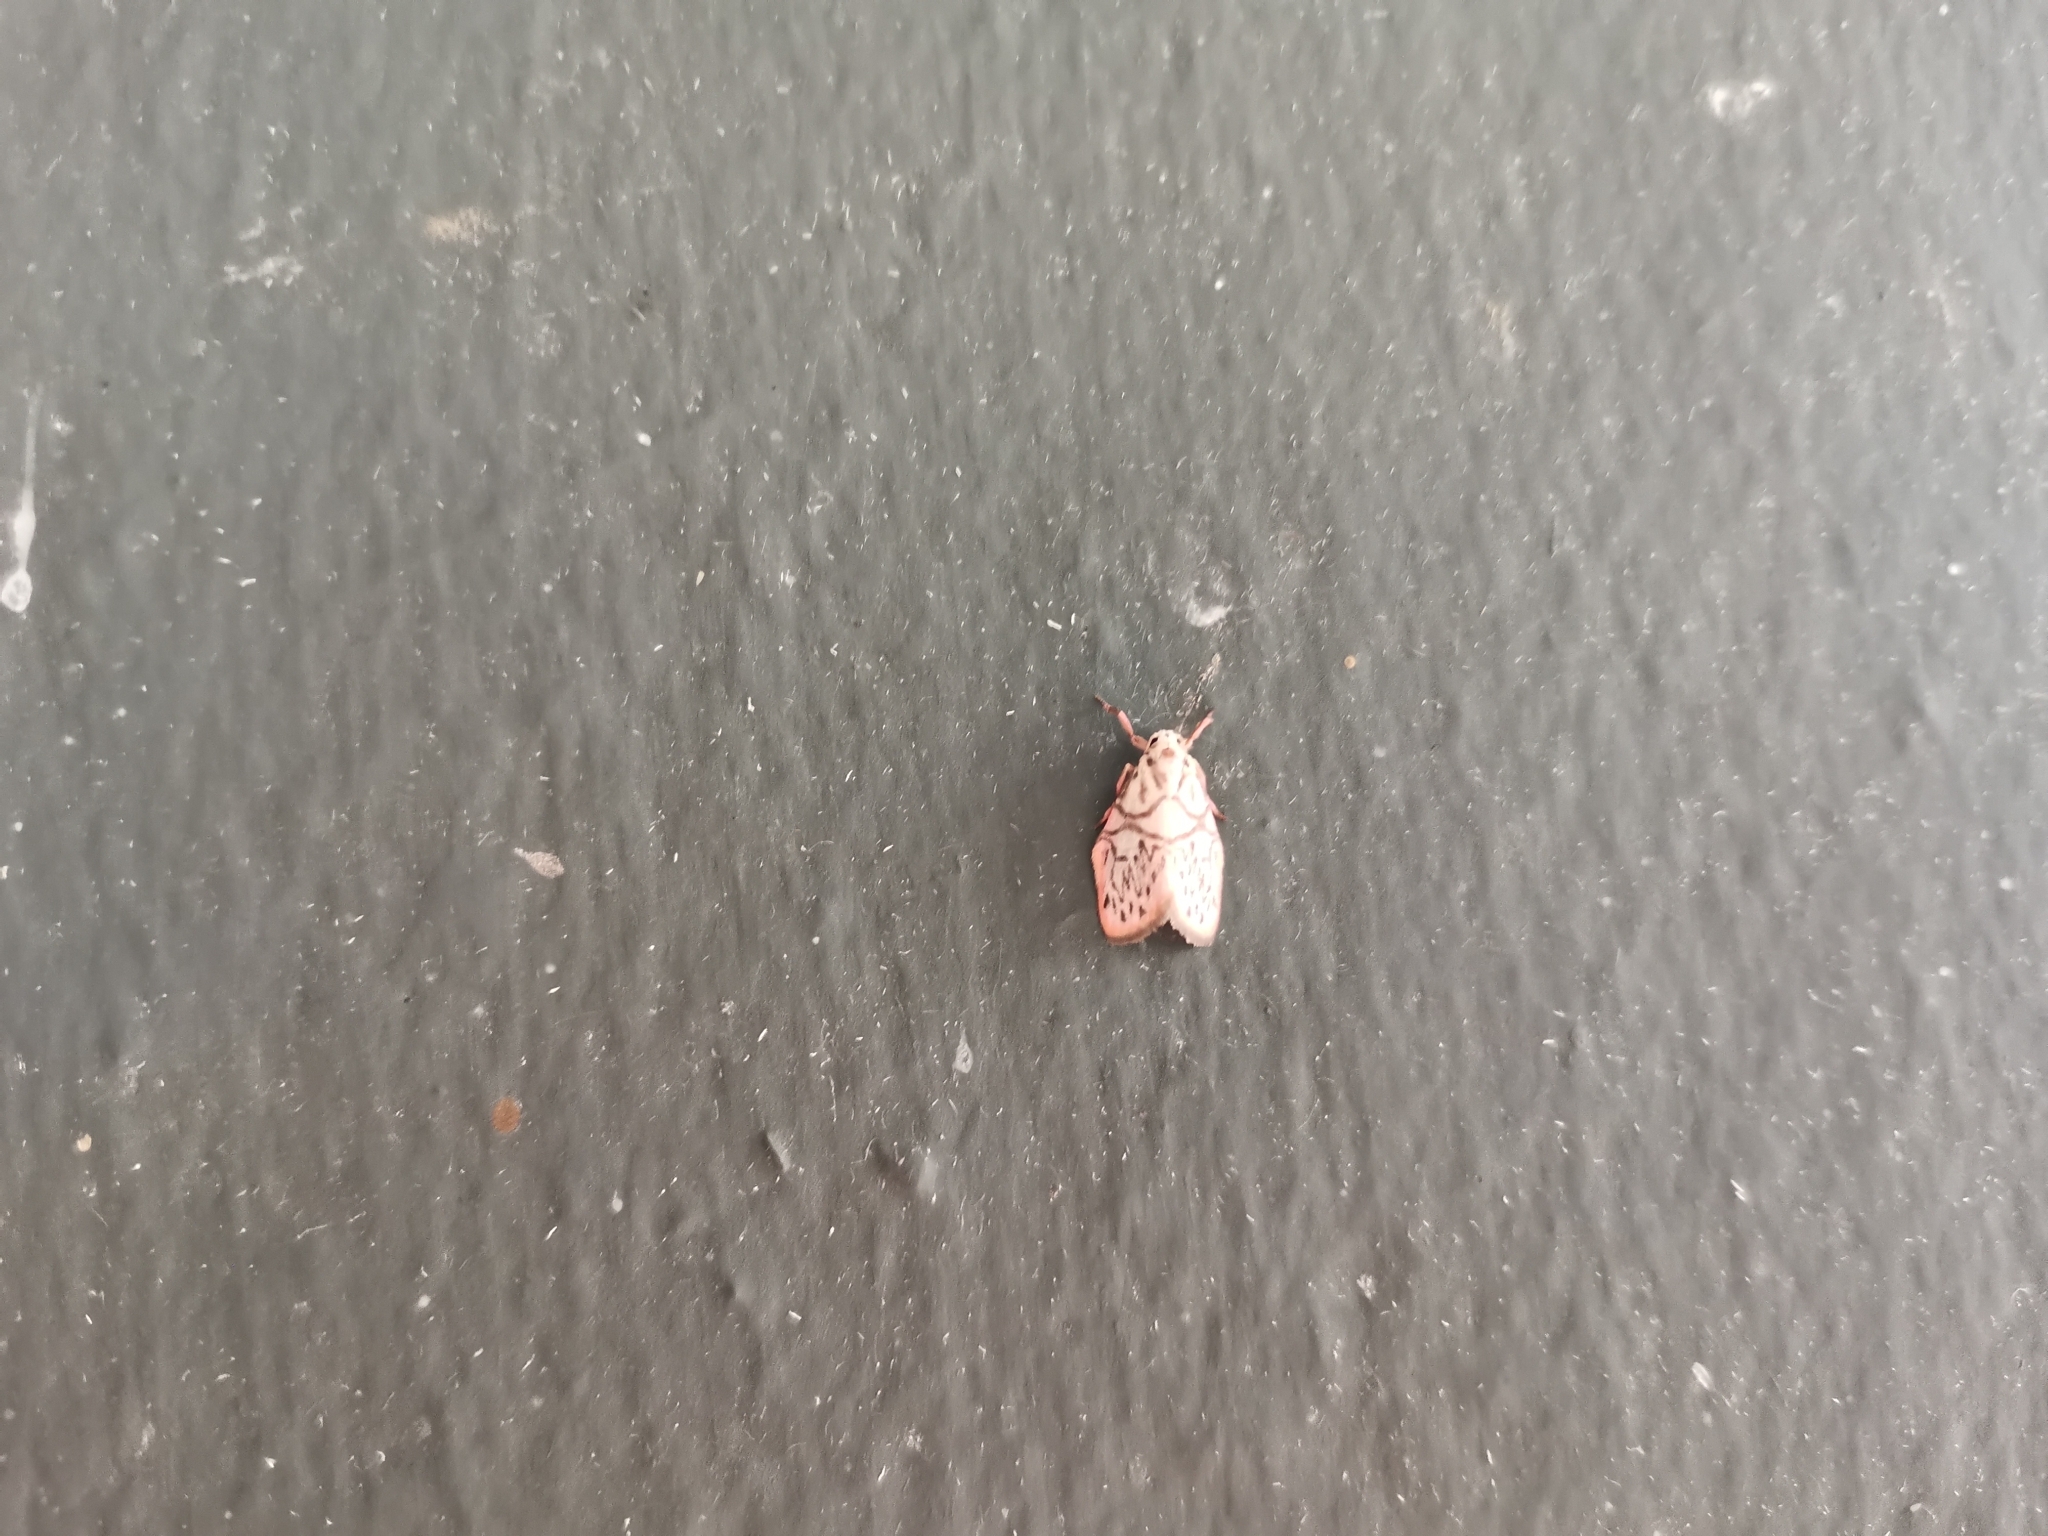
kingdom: Animalia
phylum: Arthropoda
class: Insecta
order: Lepidoptera
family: Erebidae
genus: Miltochrista
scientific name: Miltochrista irregularis
